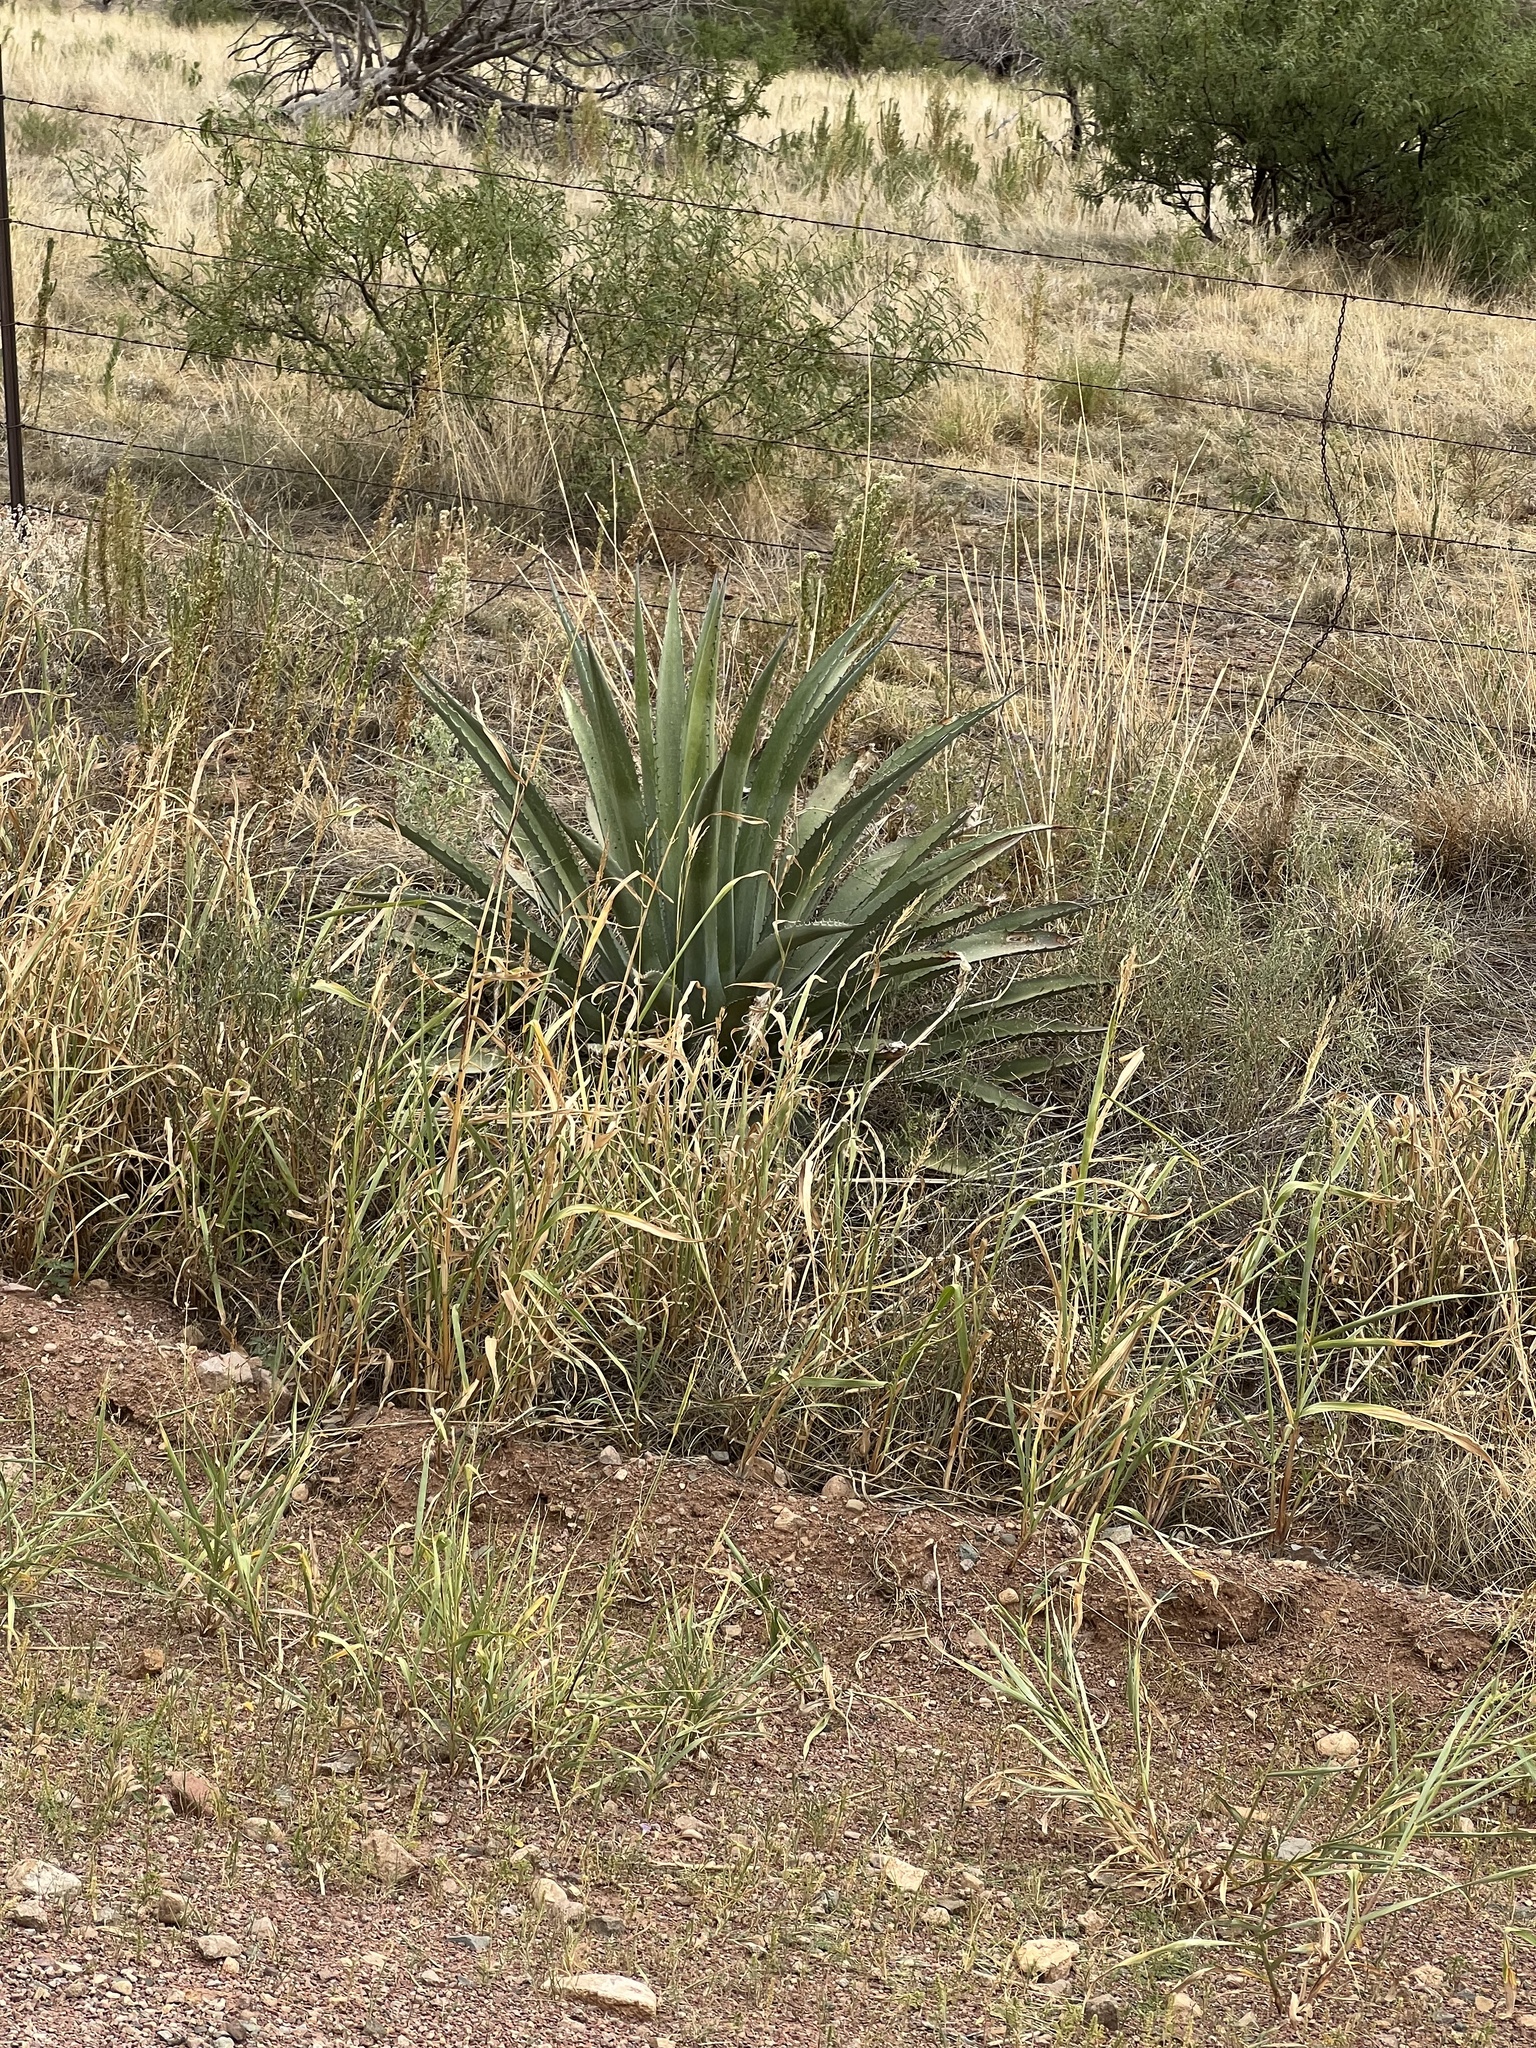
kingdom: Plantae
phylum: Tracheophyta
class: Liliopsida
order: Asparagales
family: Asparagaceae
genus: Agave
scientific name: Agave palmeri
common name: Palmer agave
